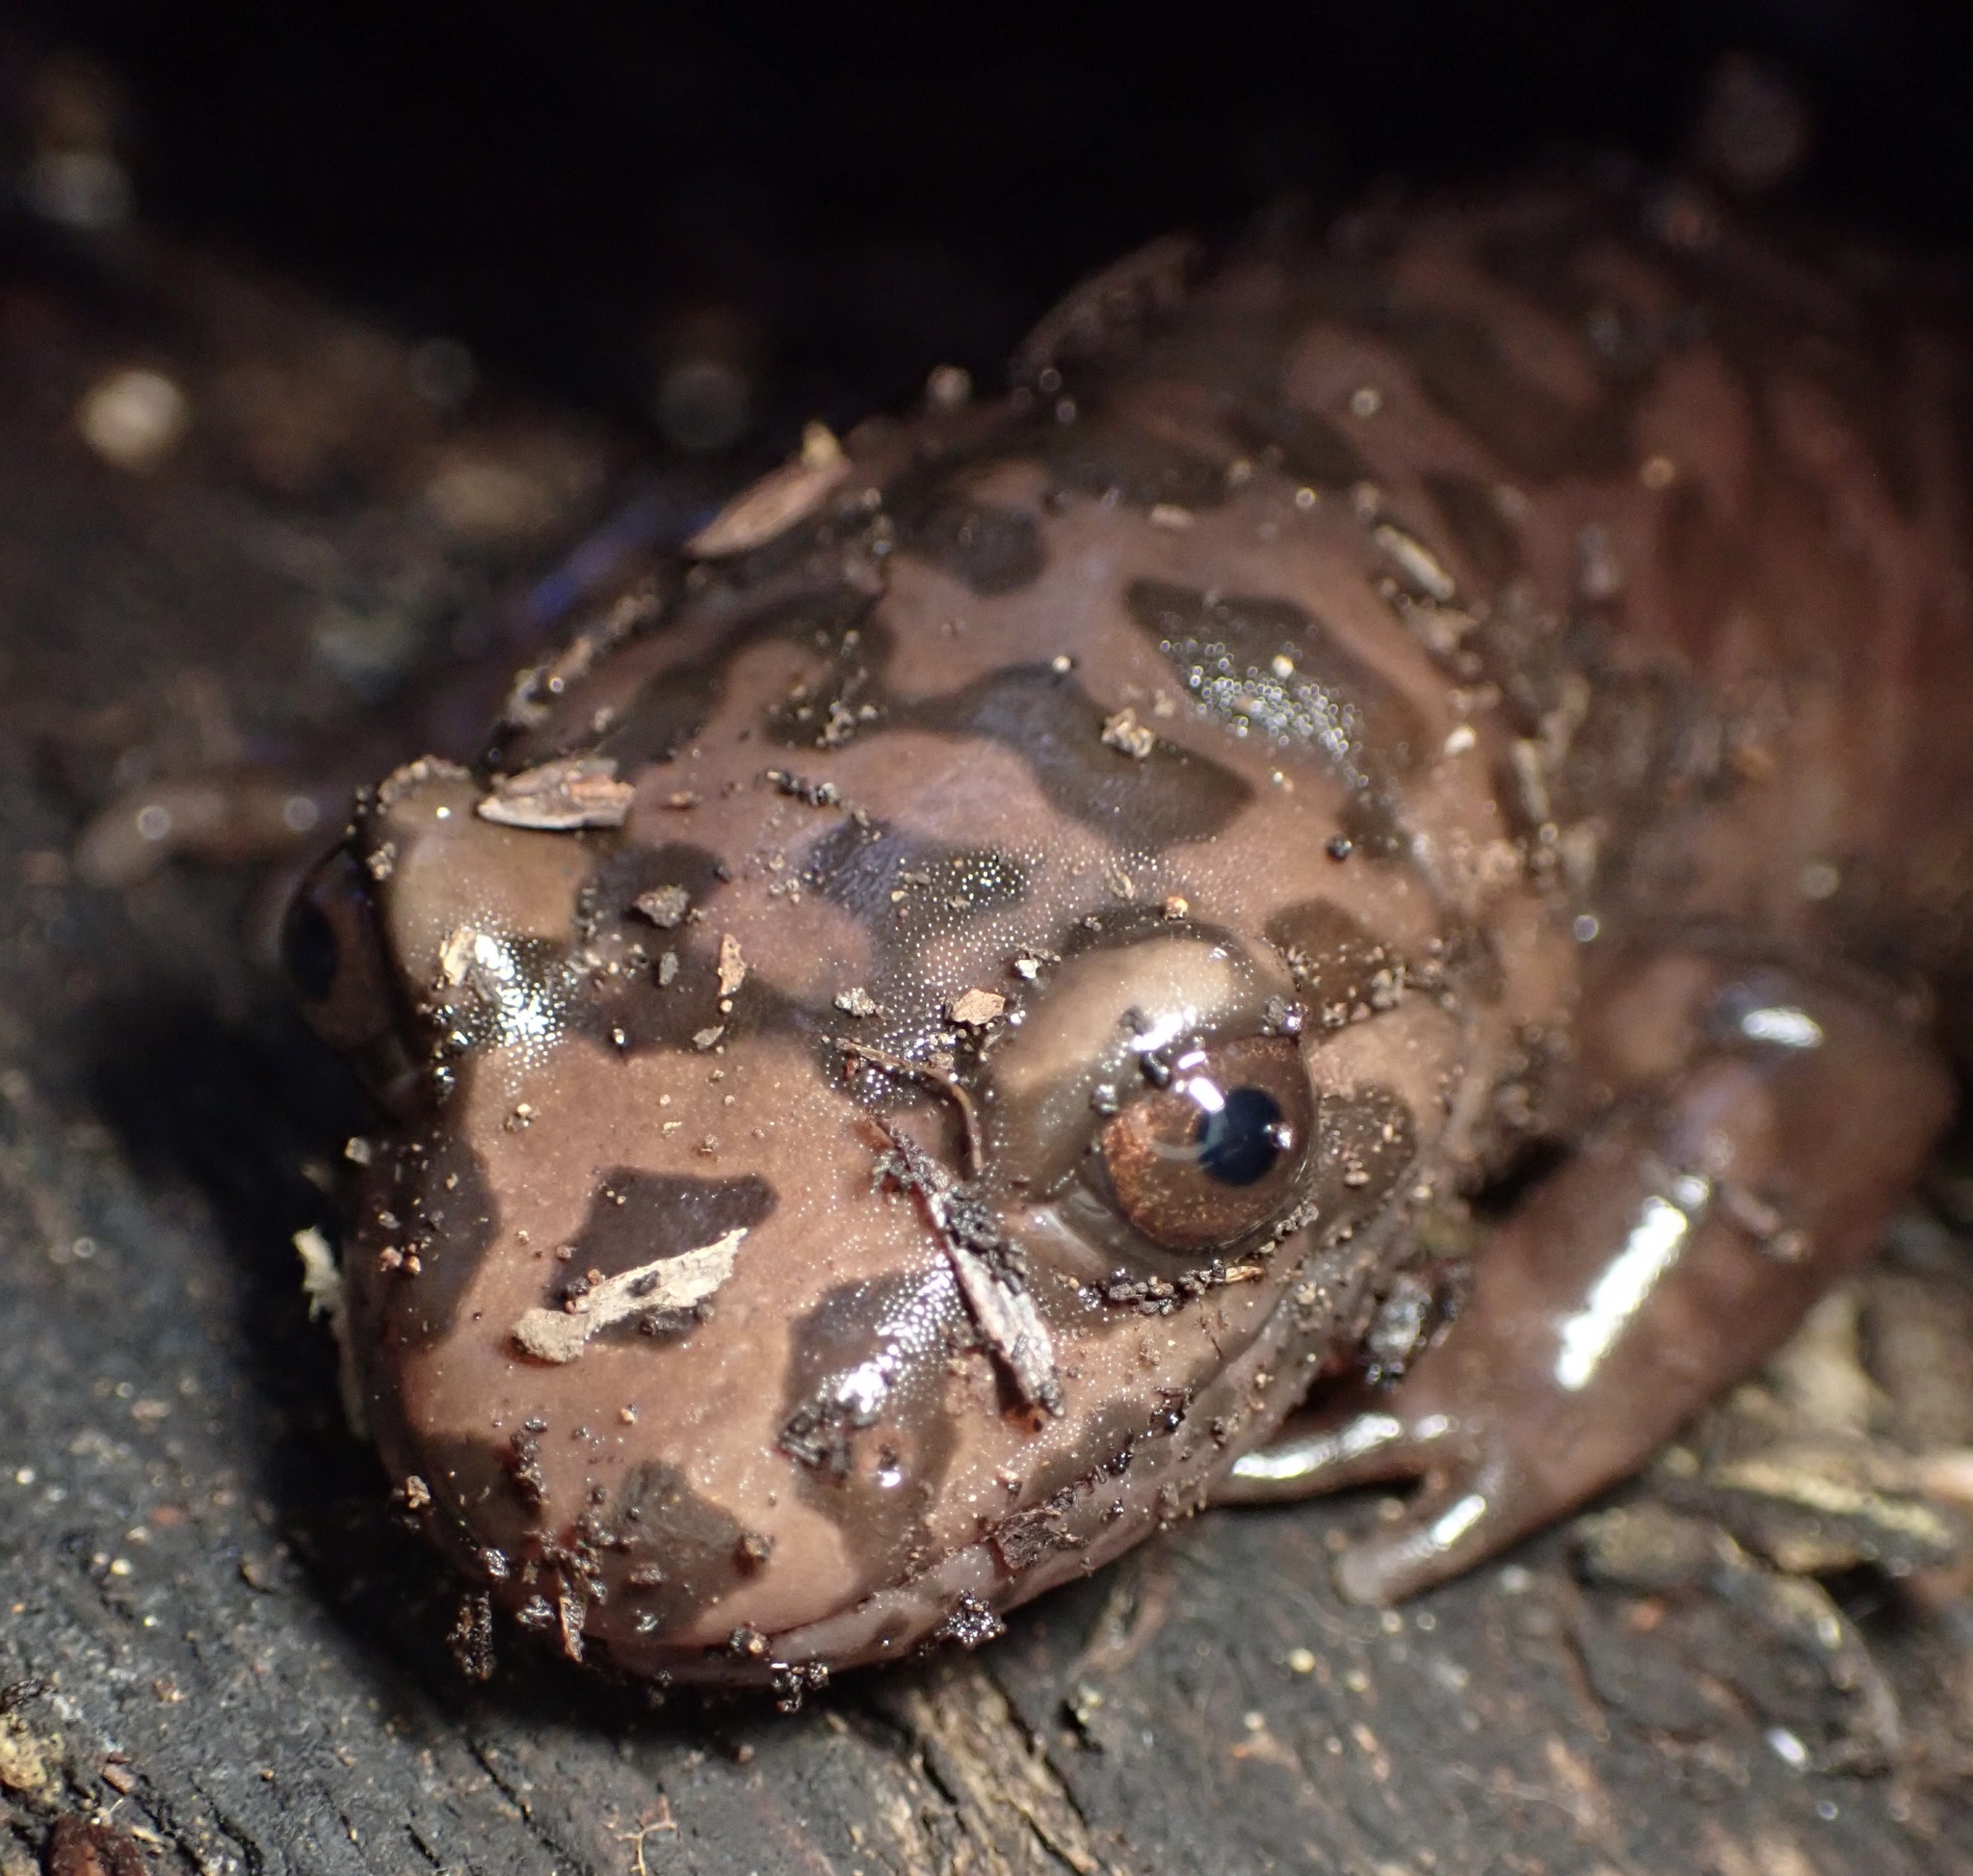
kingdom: Animalia
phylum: Chordata
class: Amphibia
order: Caudata
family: Ambystomatidae
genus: Dicamptodon
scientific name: Dicamptodon ensatus
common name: California giant salamander
